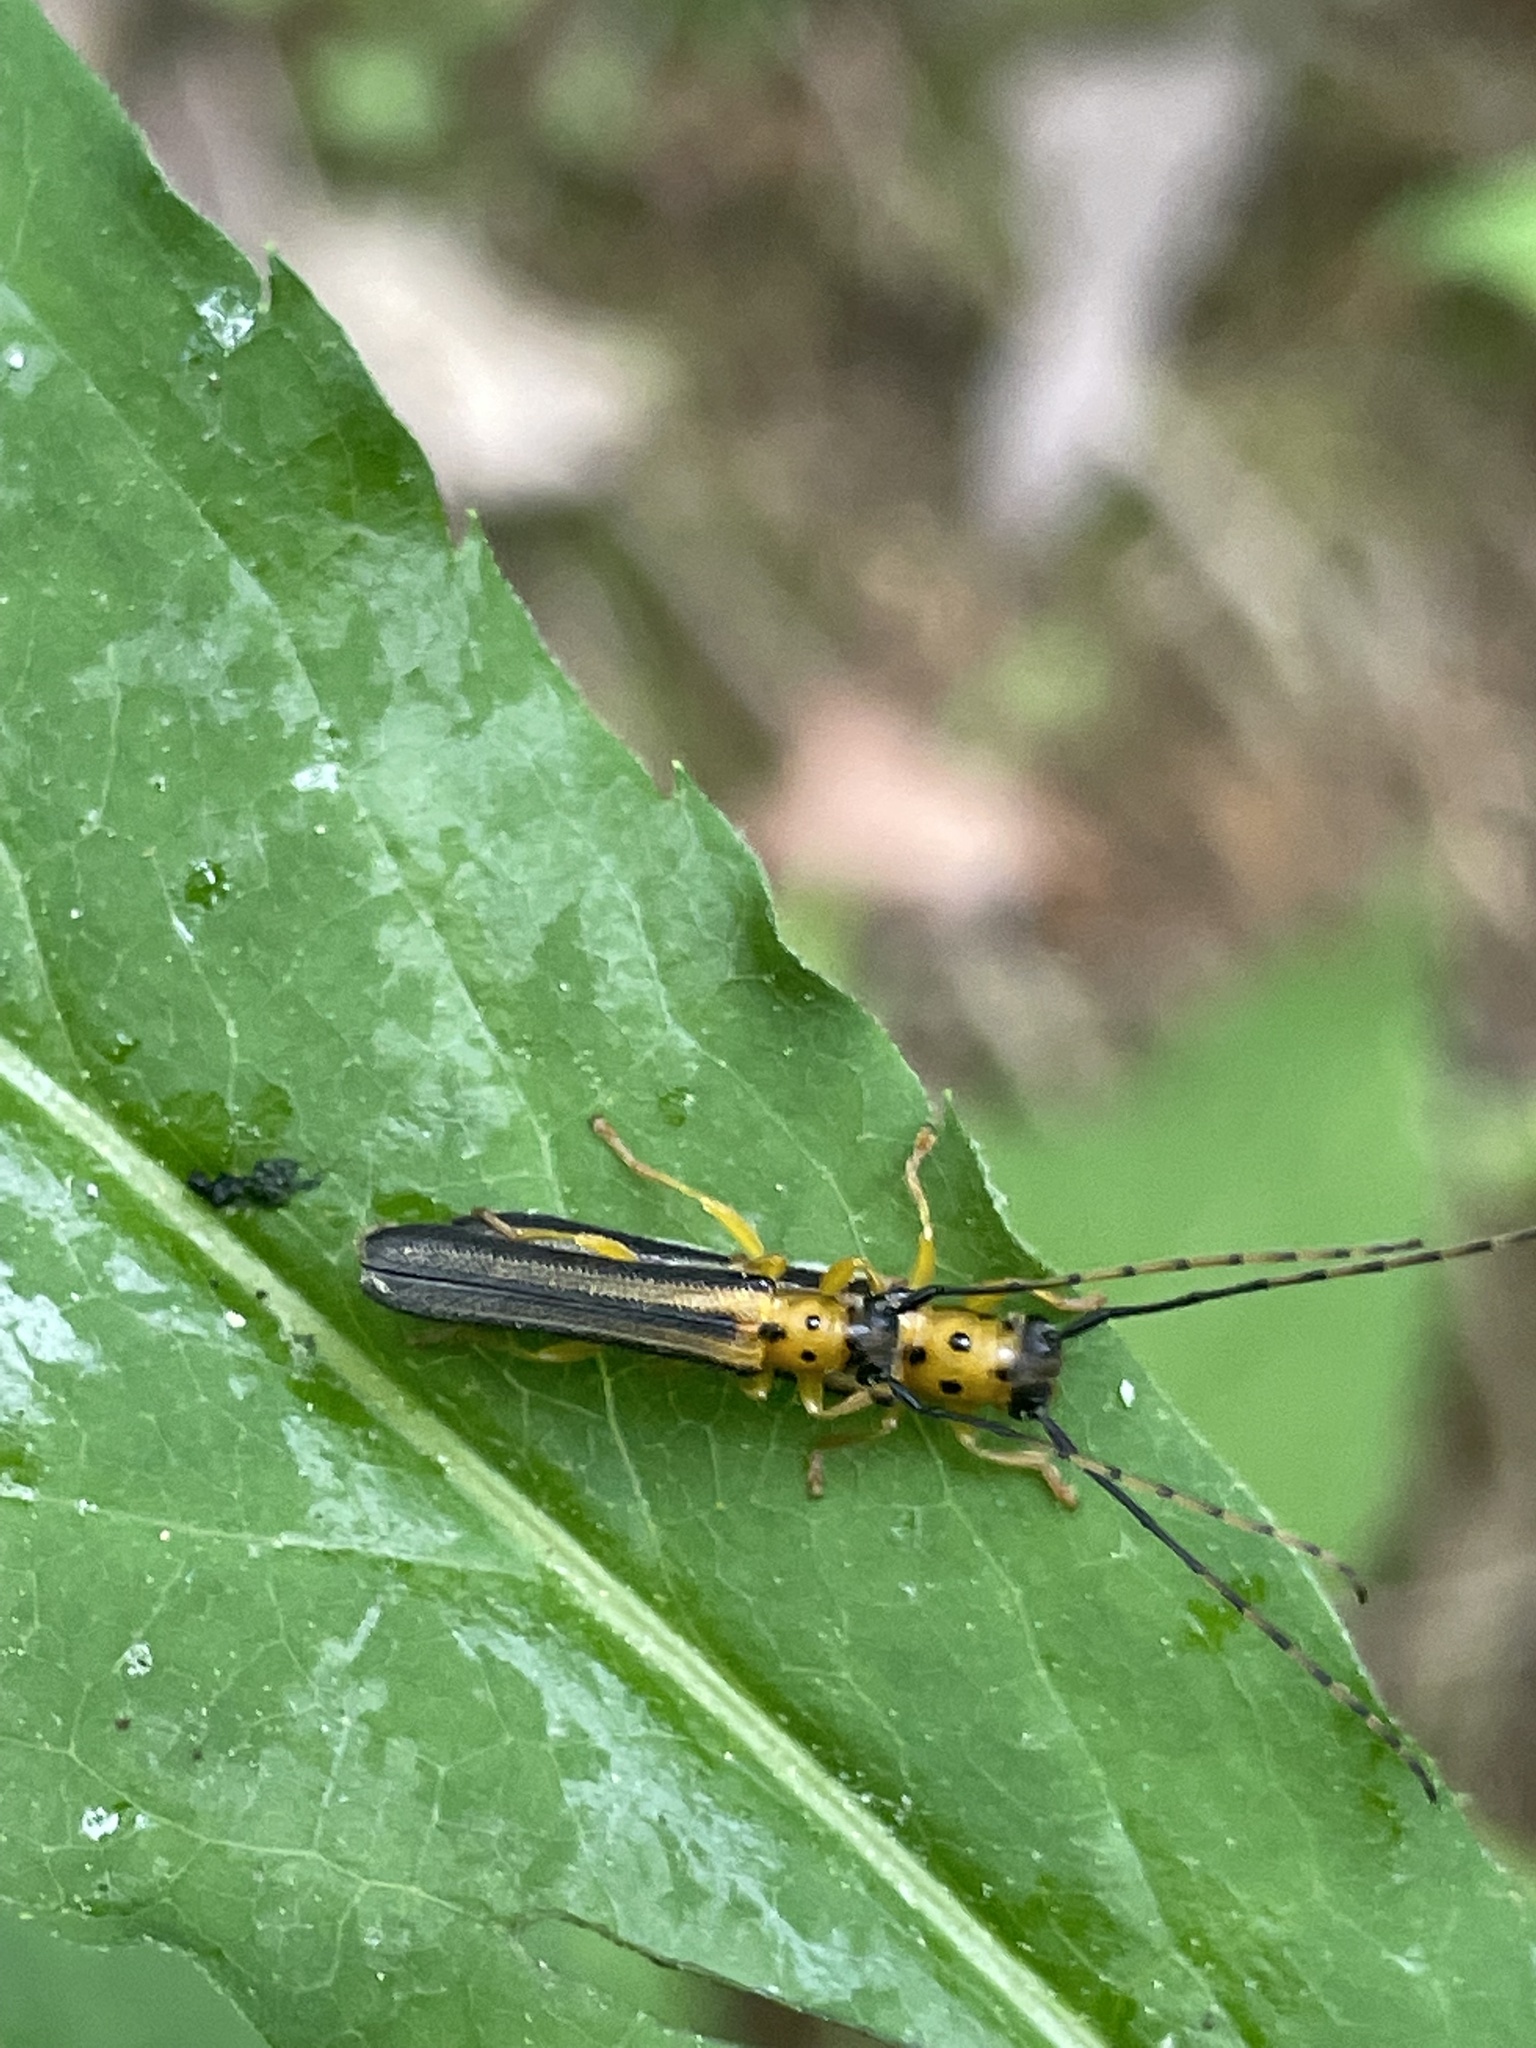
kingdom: Animalia
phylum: Arthropoda
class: Insecta
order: Coleoptera
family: Cerambycidae
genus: Oberea
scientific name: Oberea tripunctata
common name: Dogwood twig borer
